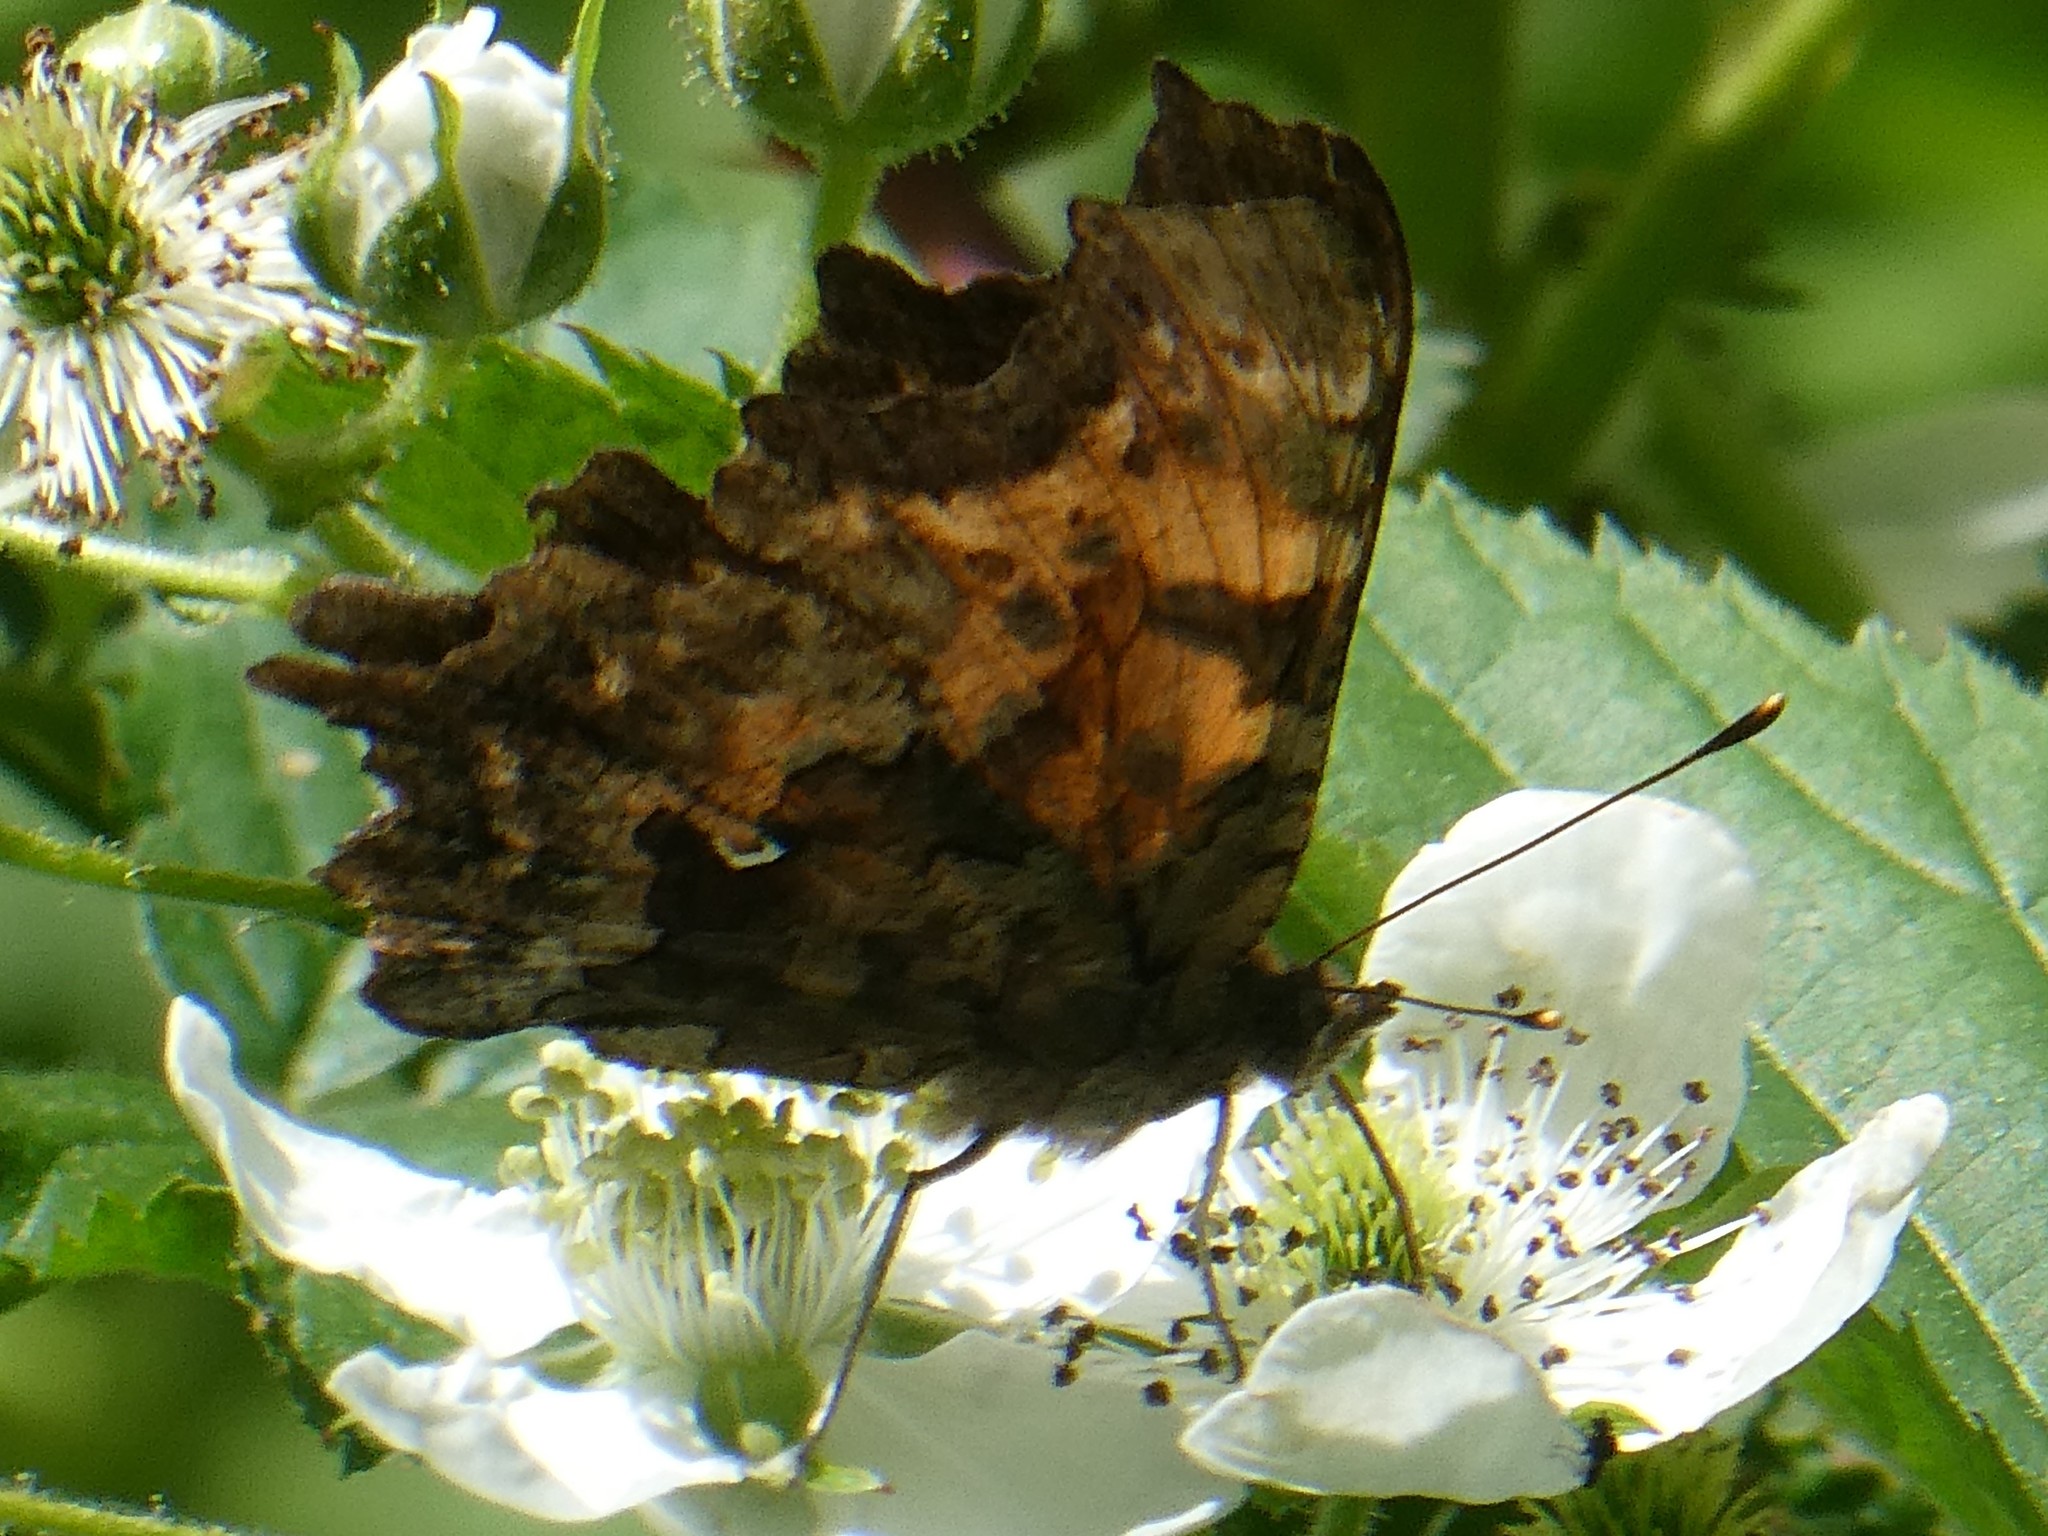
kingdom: Animalia
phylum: Arthropoda
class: Insecta
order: Lepidoptera
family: Nymphalidae
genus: Polygonia
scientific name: Polygonia comma
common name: Eastern comma
